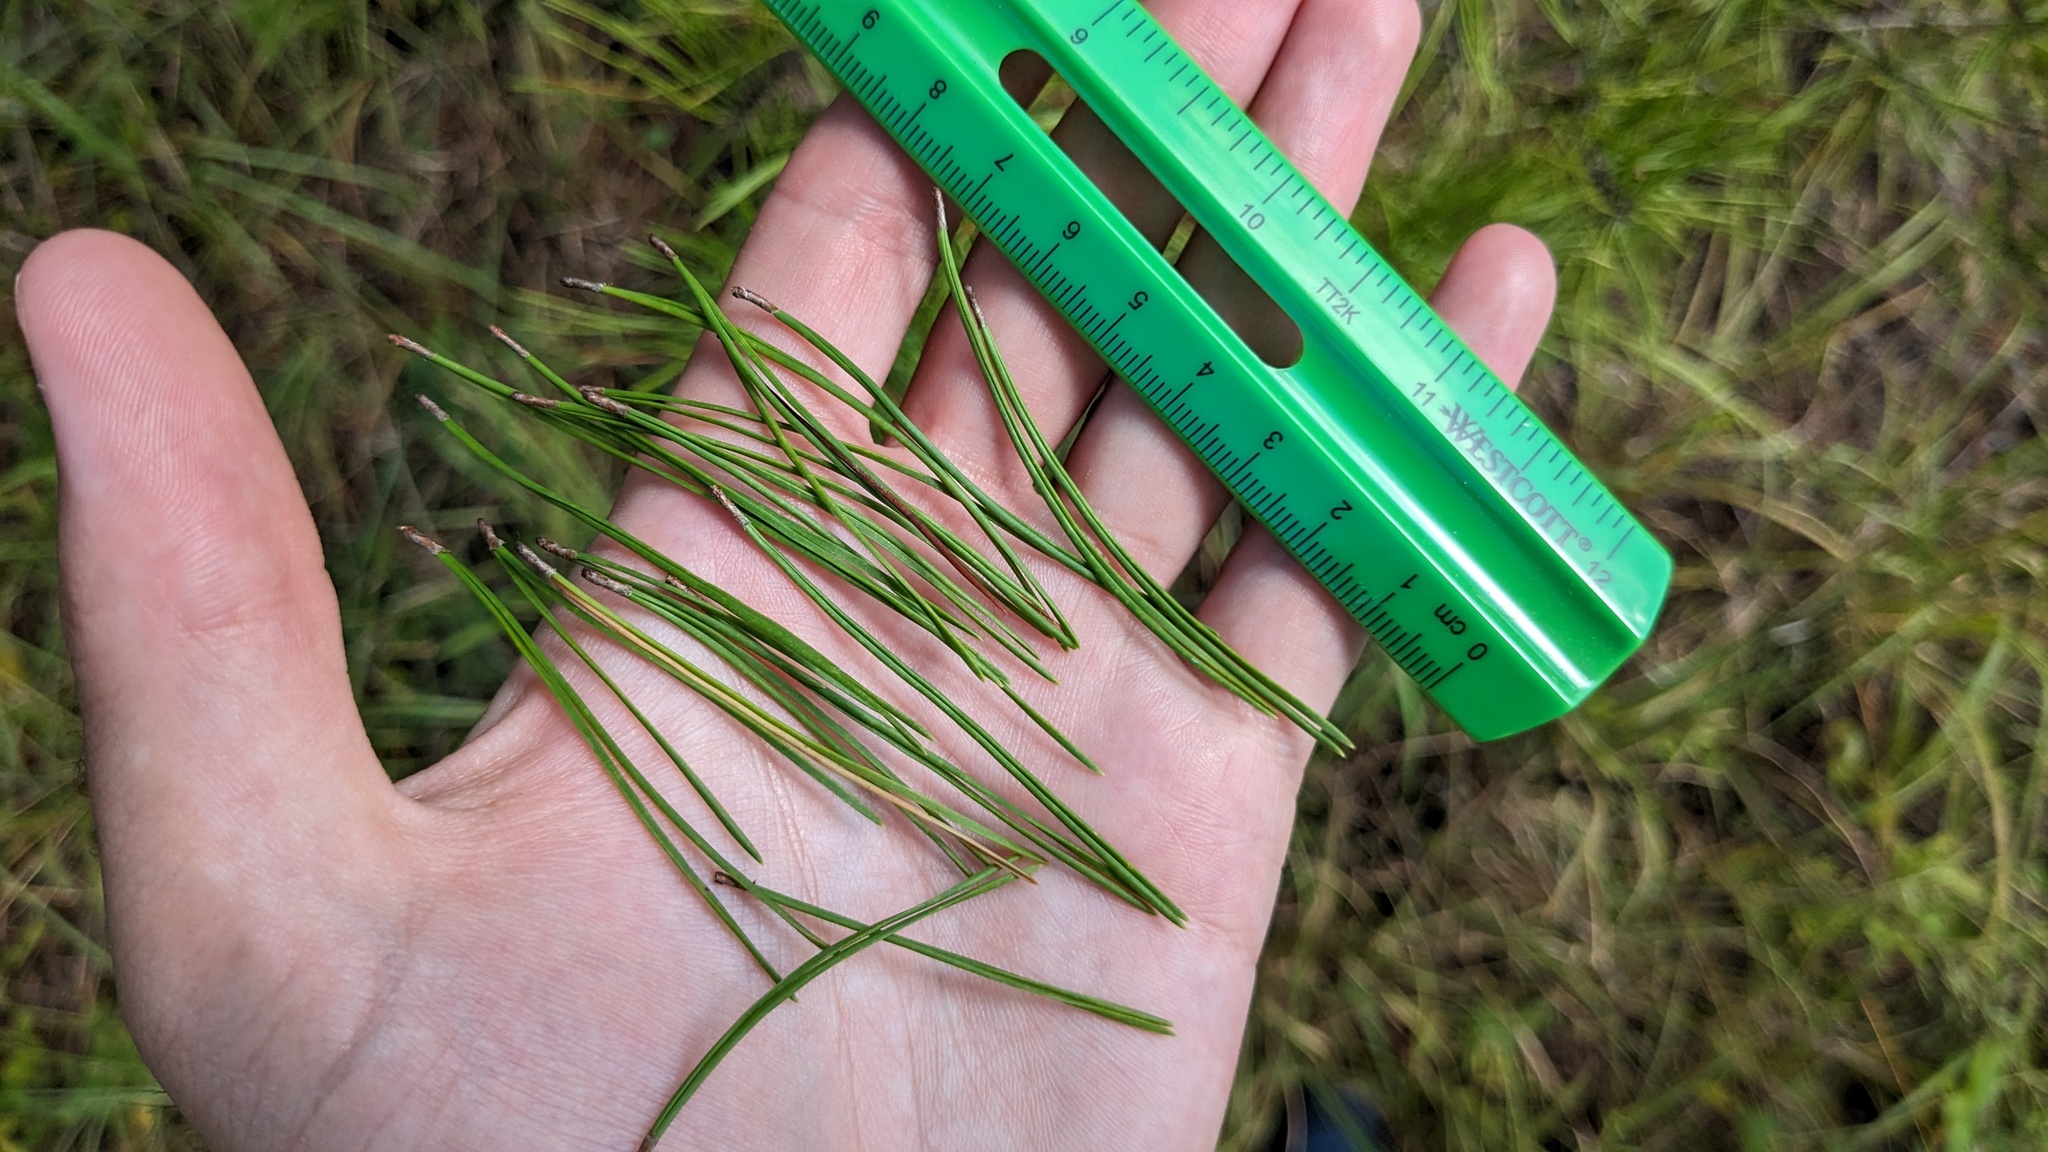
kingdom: Plantae
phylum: Tracheophyta
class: Pinopsida
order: Pinales
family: Pinaceae
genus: Pinus
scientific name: Pinus clausa
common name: Sand pine
